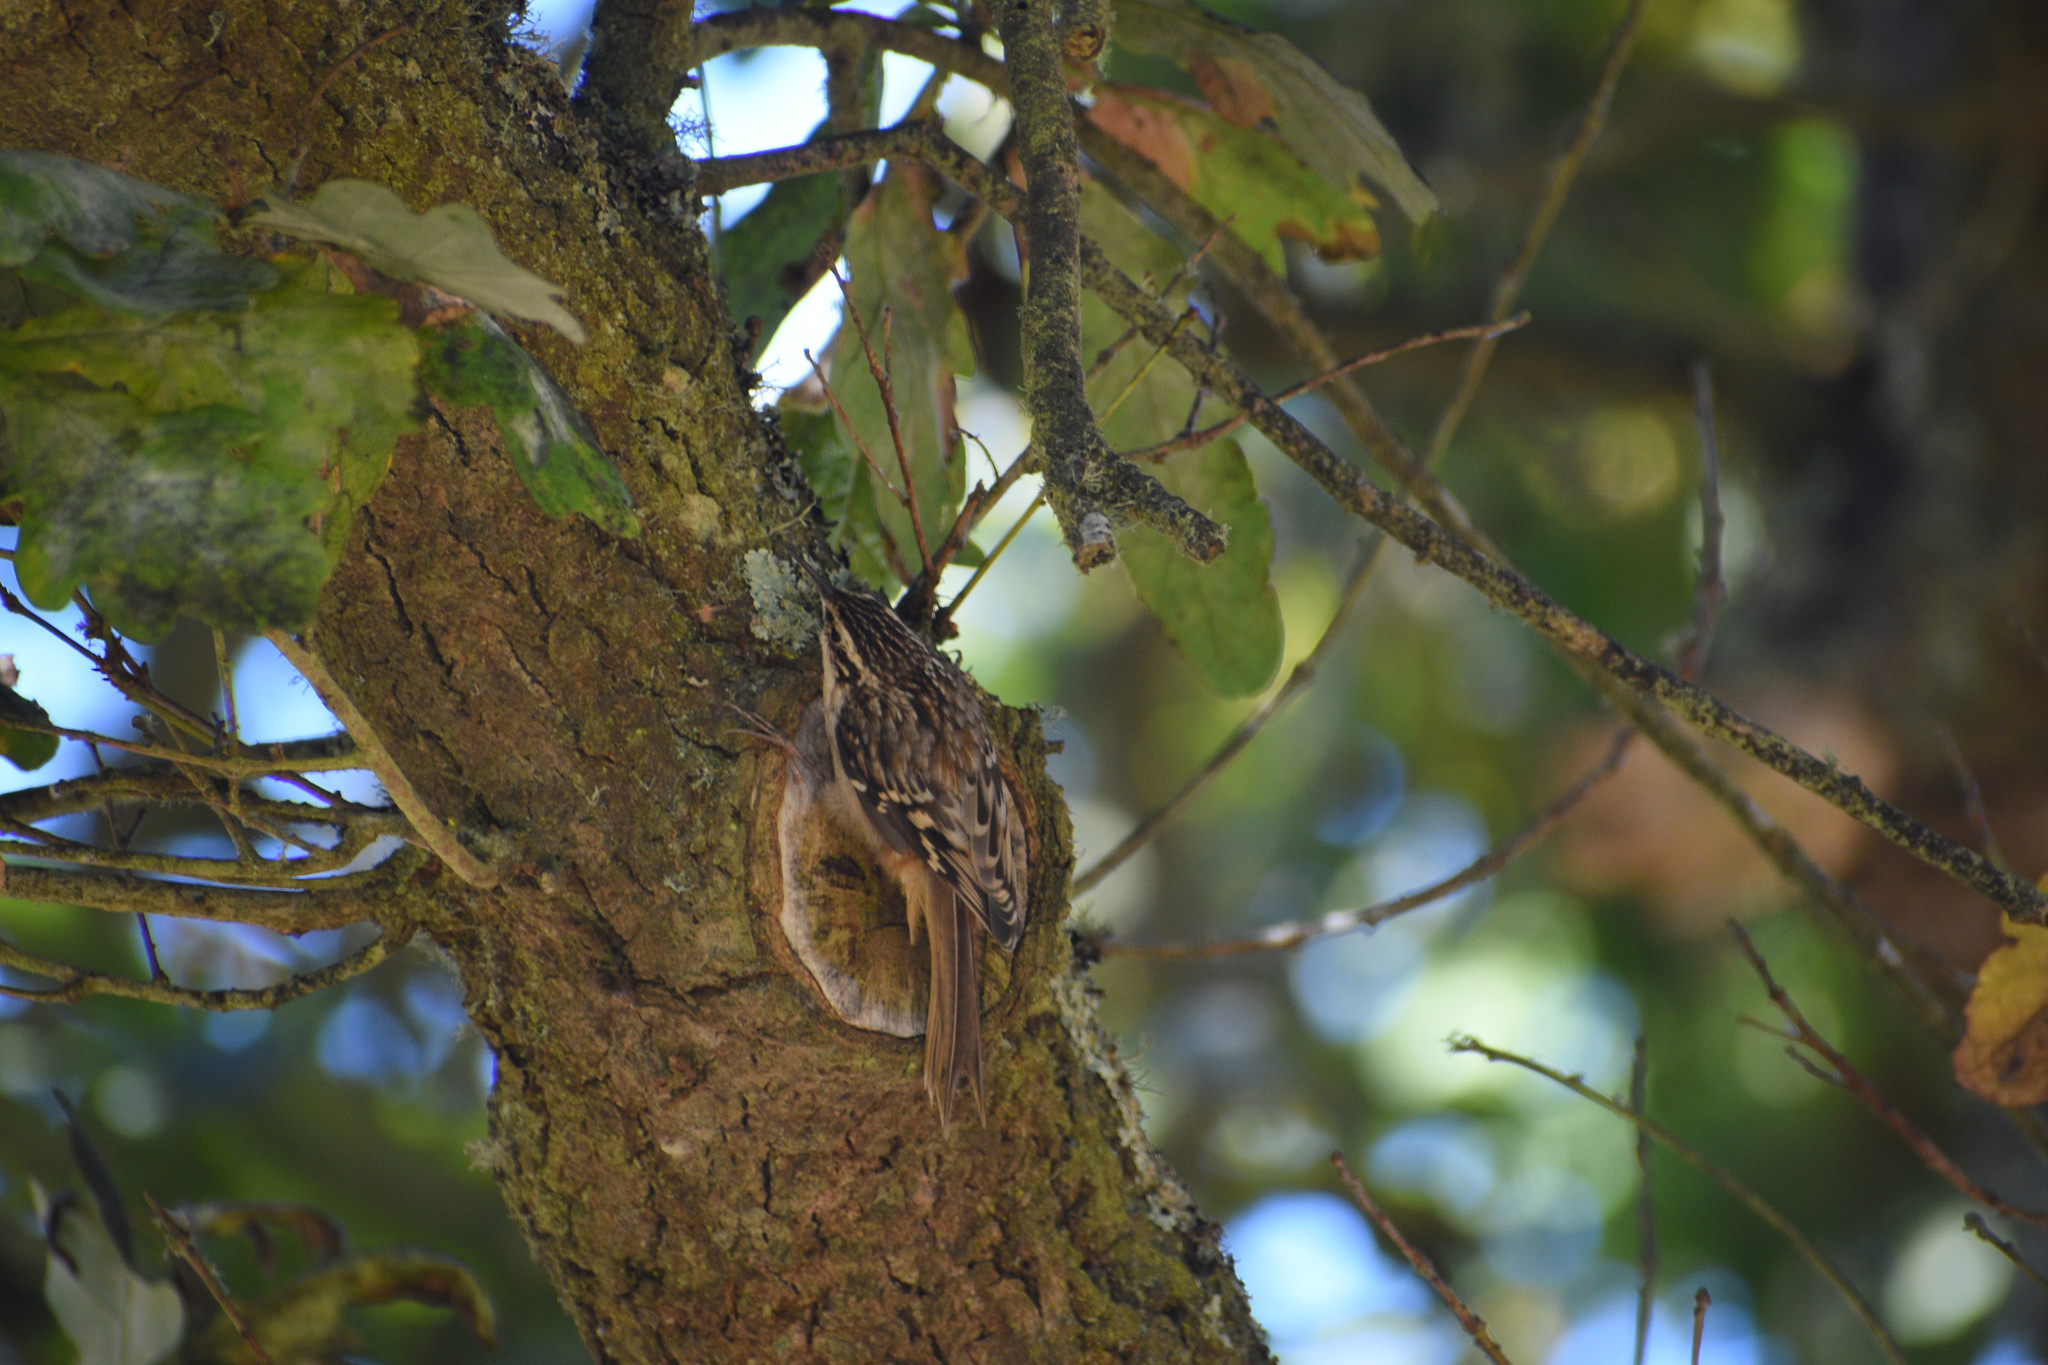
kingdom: Animalia
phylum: Chordata
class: Aves
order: Passeriformes
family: Certhiidae
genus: Certhia
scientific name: Certhia americana
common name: Brown creeper
